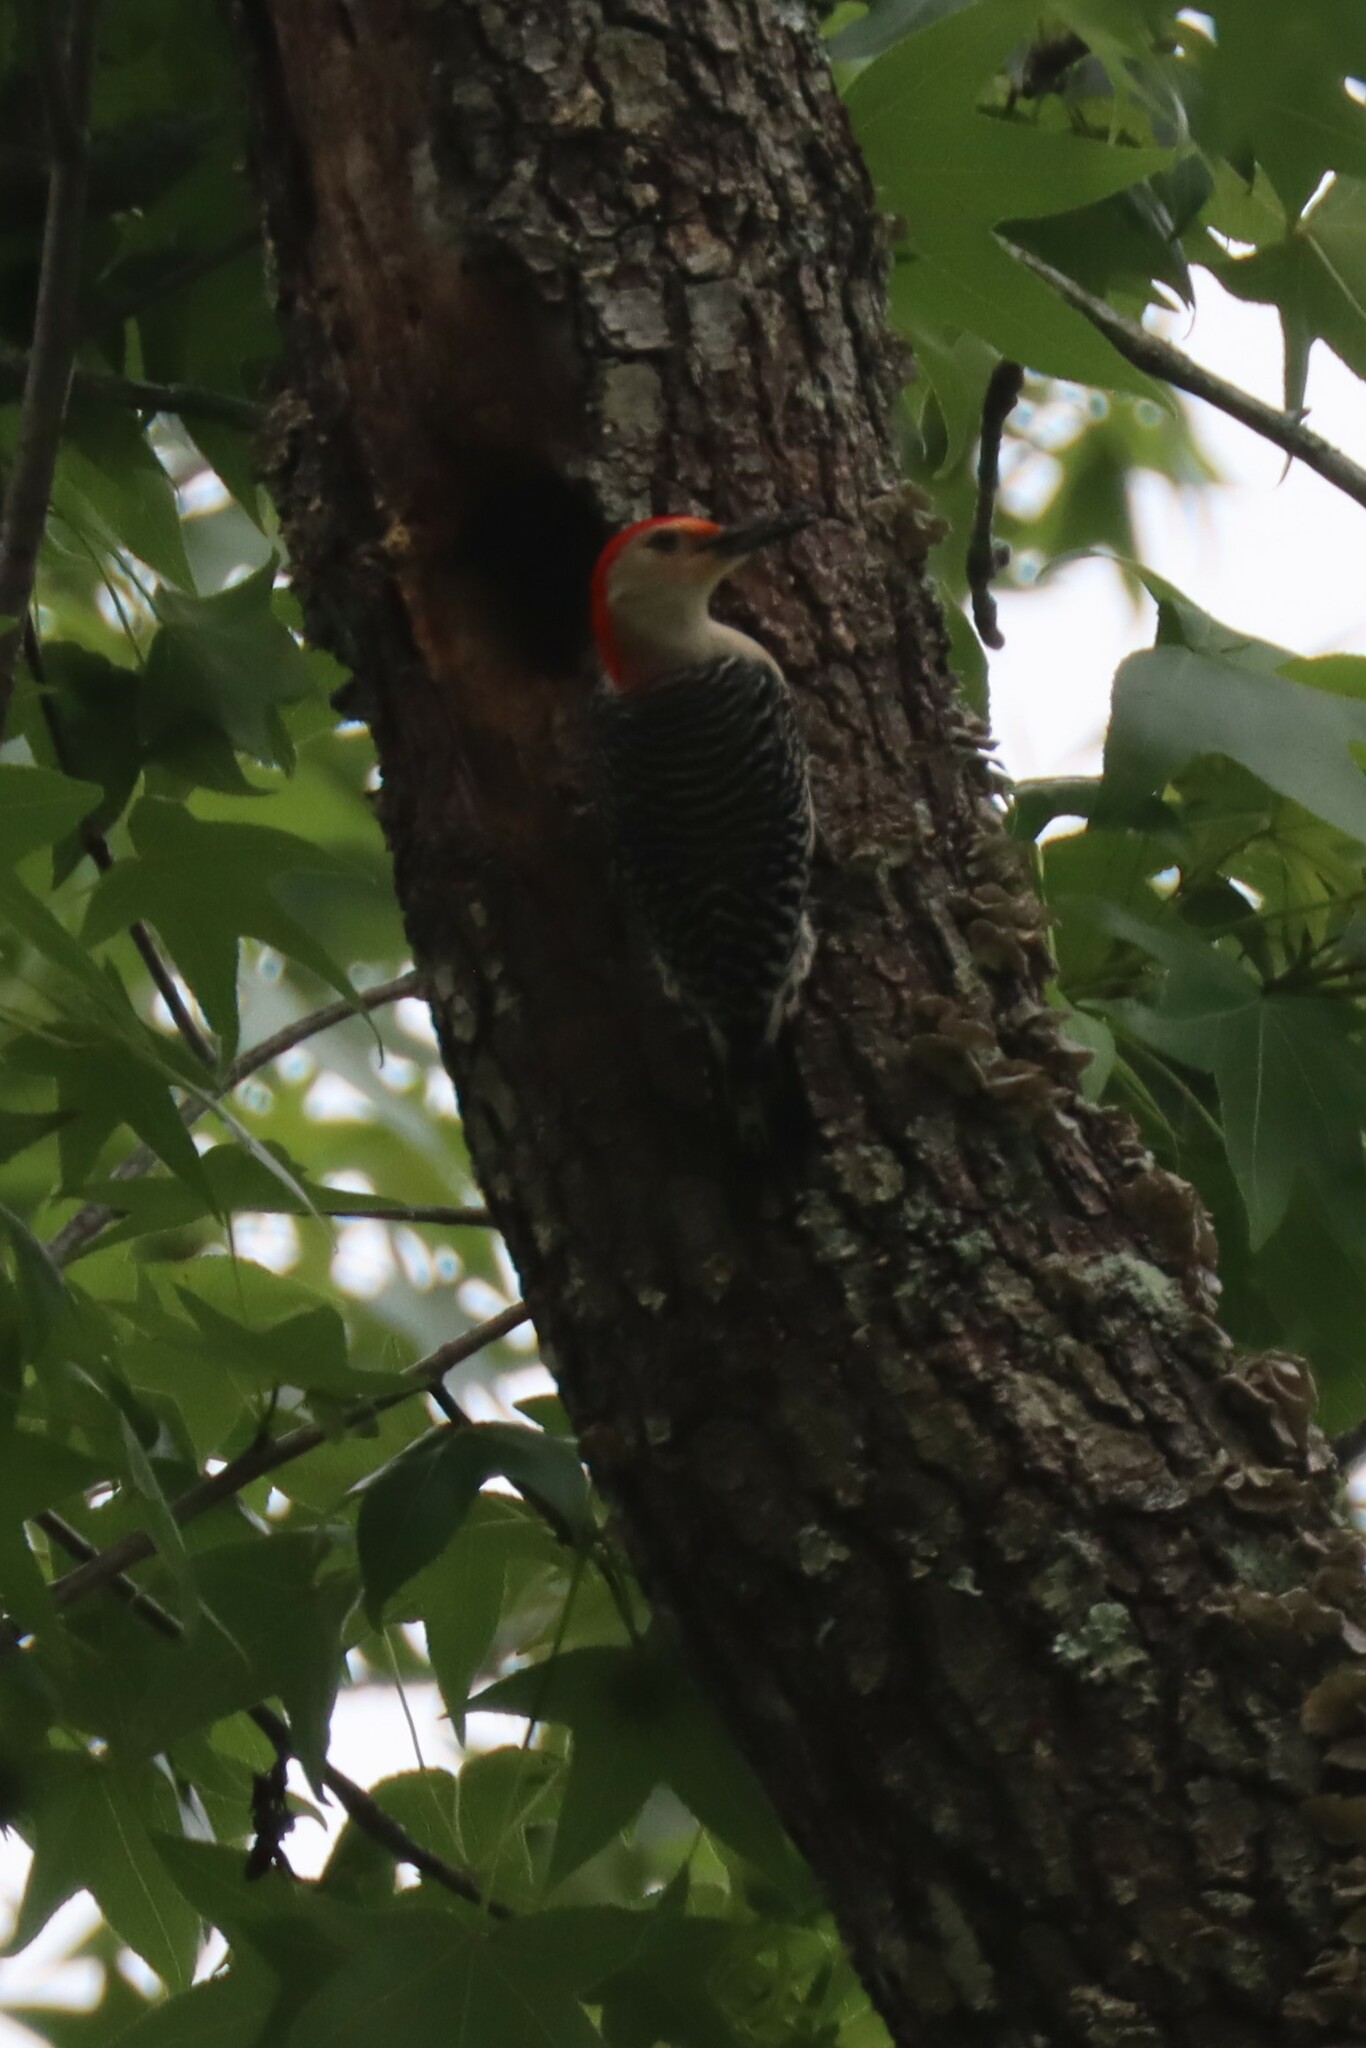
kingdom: Animalia
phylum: Chordata
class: Aves
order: Piciformes
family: Picidae
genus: Melanerpes
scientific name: Melanerpes carolinus
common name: Red-bellied woodpecker
